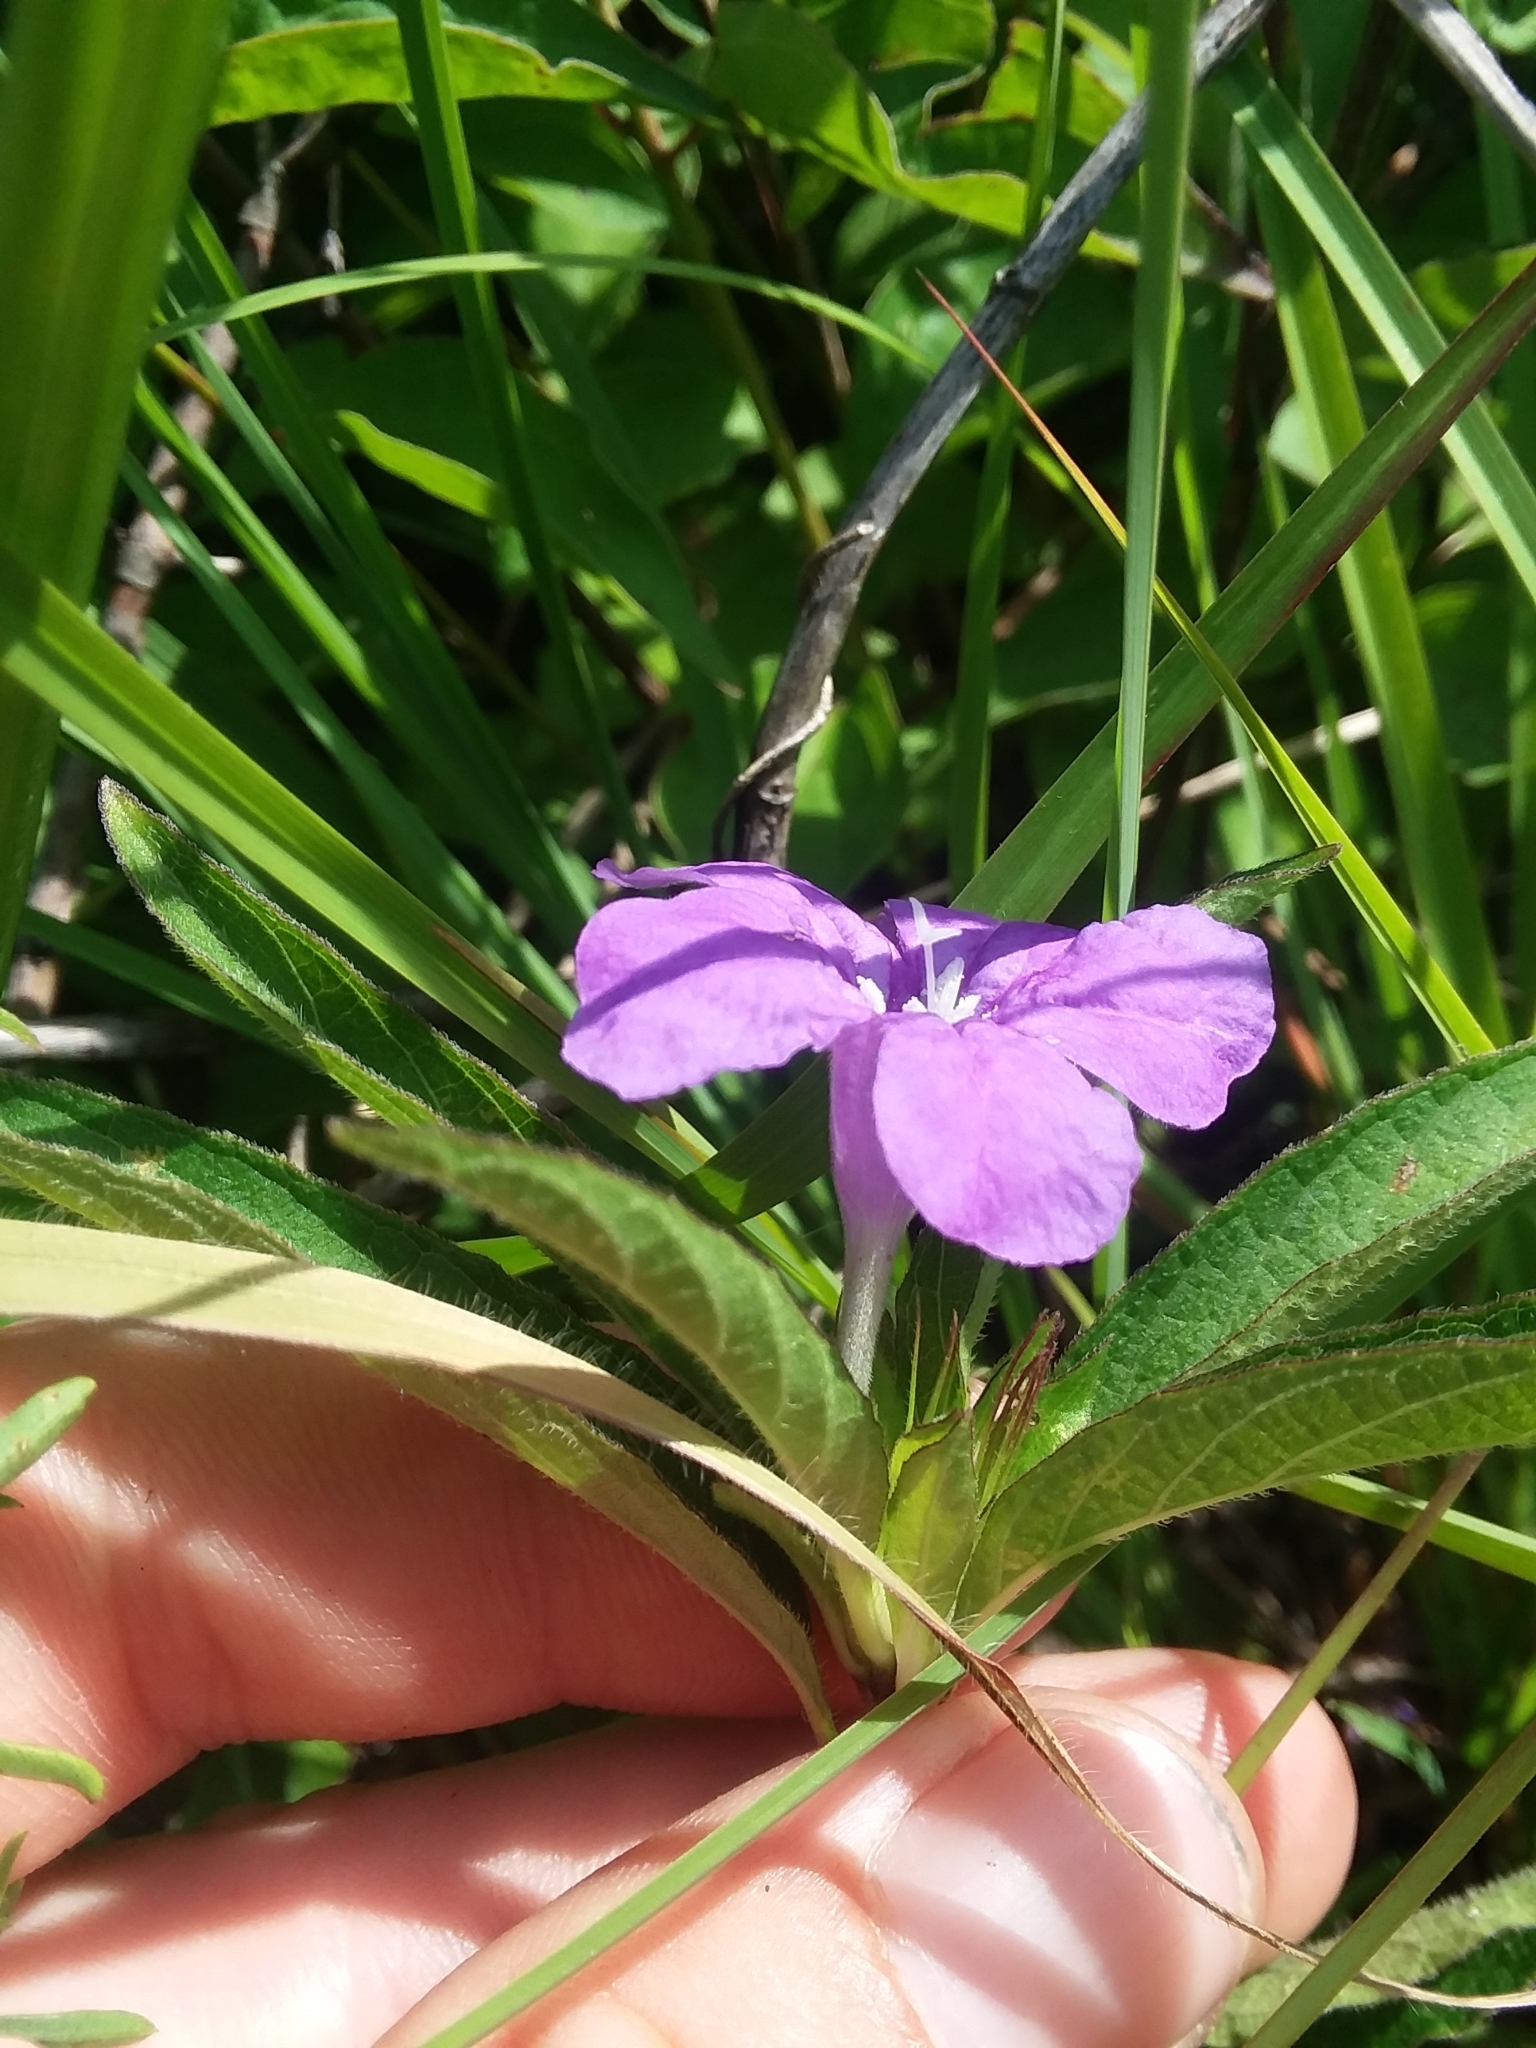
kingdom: Plantae
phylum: Tracheophyta
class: Magnoliopsida
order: Lamiales
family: Acanthaceae
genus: Ruellia
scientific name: Ruellia caroliniensis
